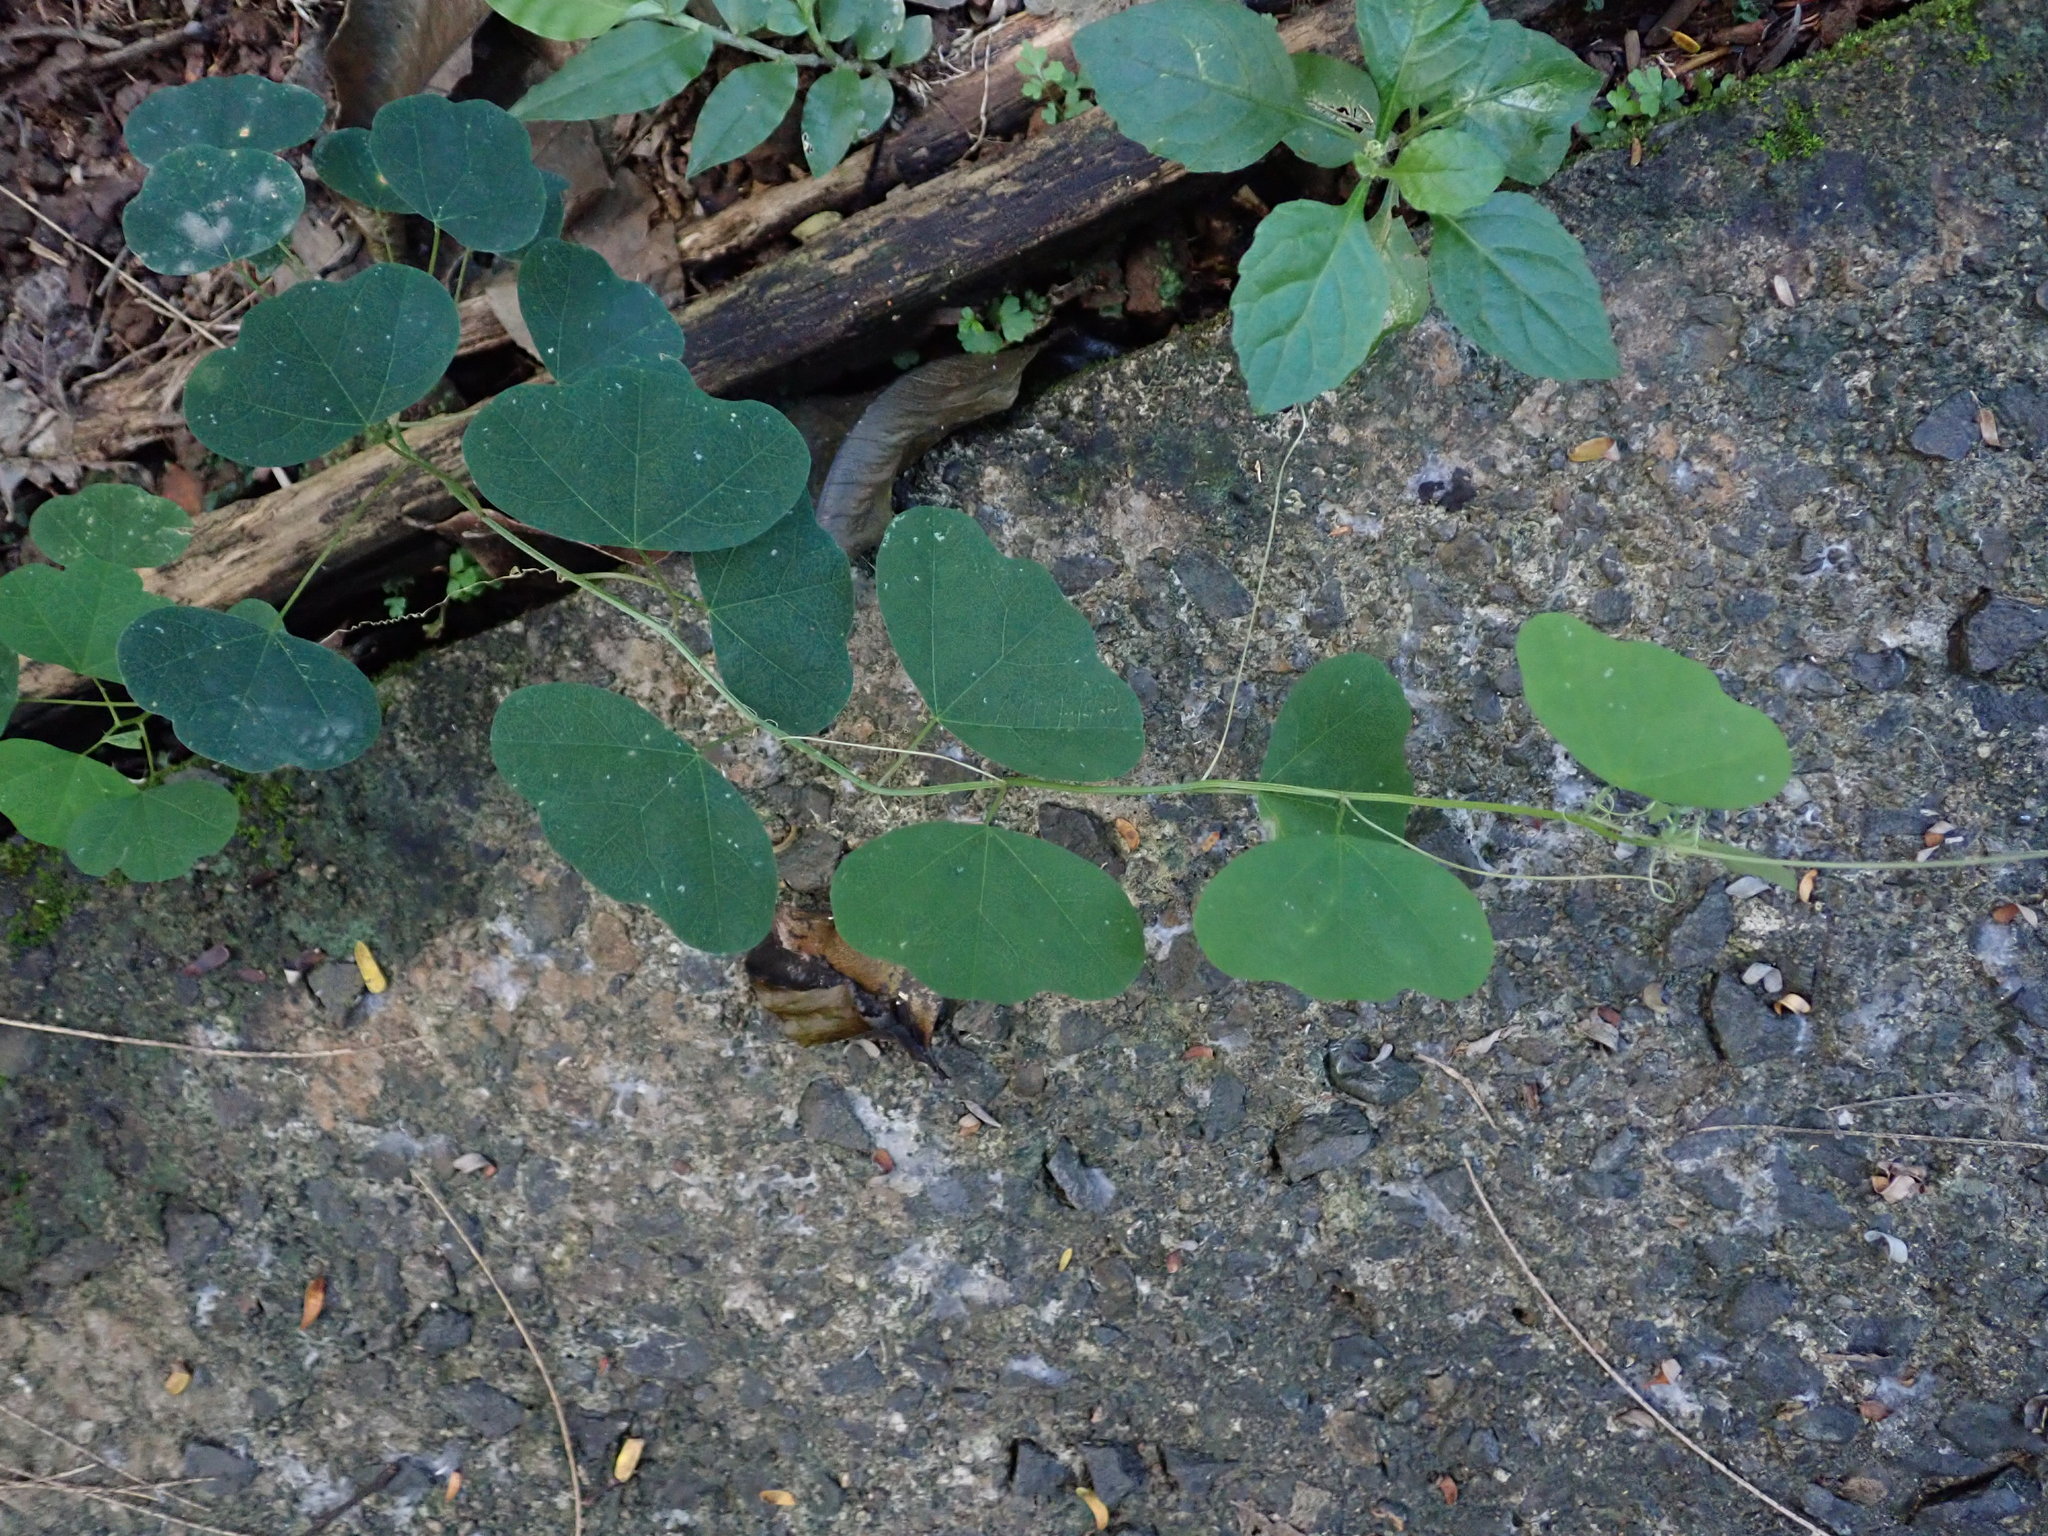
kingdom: Plantae
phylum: Tracheophyta
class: Magnoliopsida
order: Malpighiales
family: Passifloraceae
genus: Passiflora
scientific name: Passiflora murucuja
